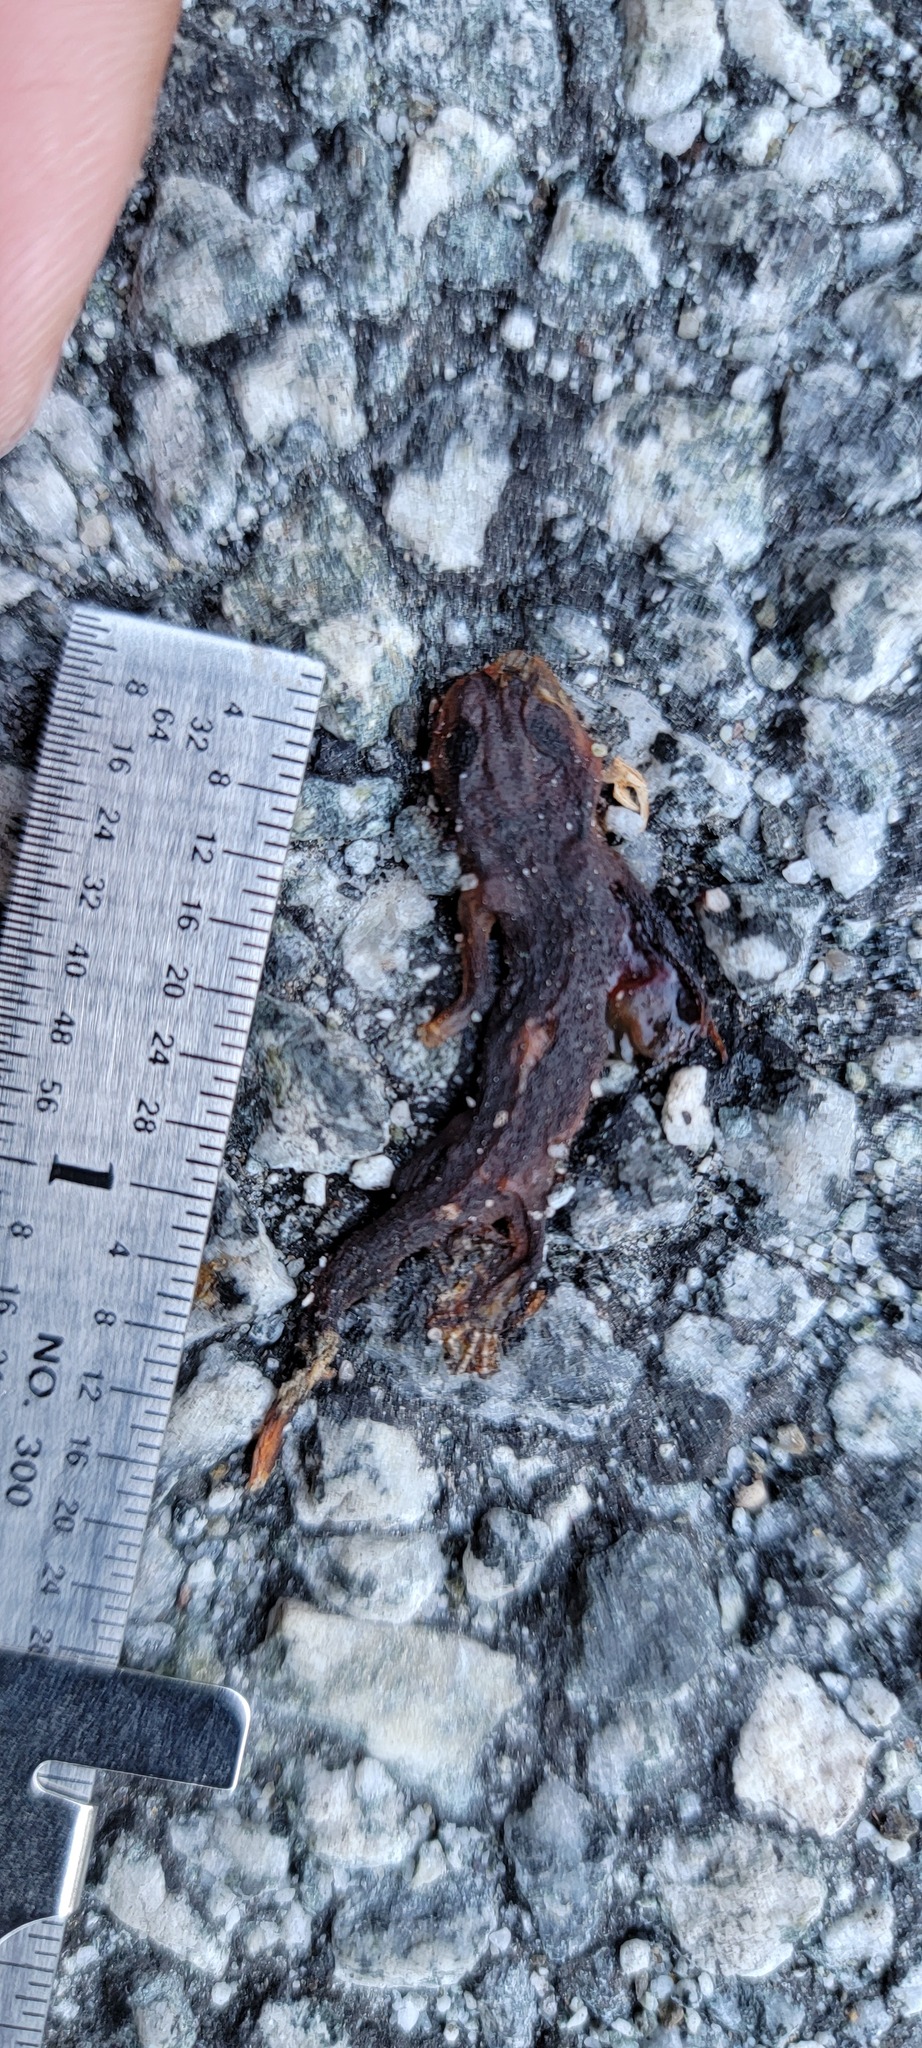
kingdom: Animalia
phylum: Chordata
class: Amphibia
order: Caudata
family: Salamandridae
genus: Taricha
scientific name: Taricha
